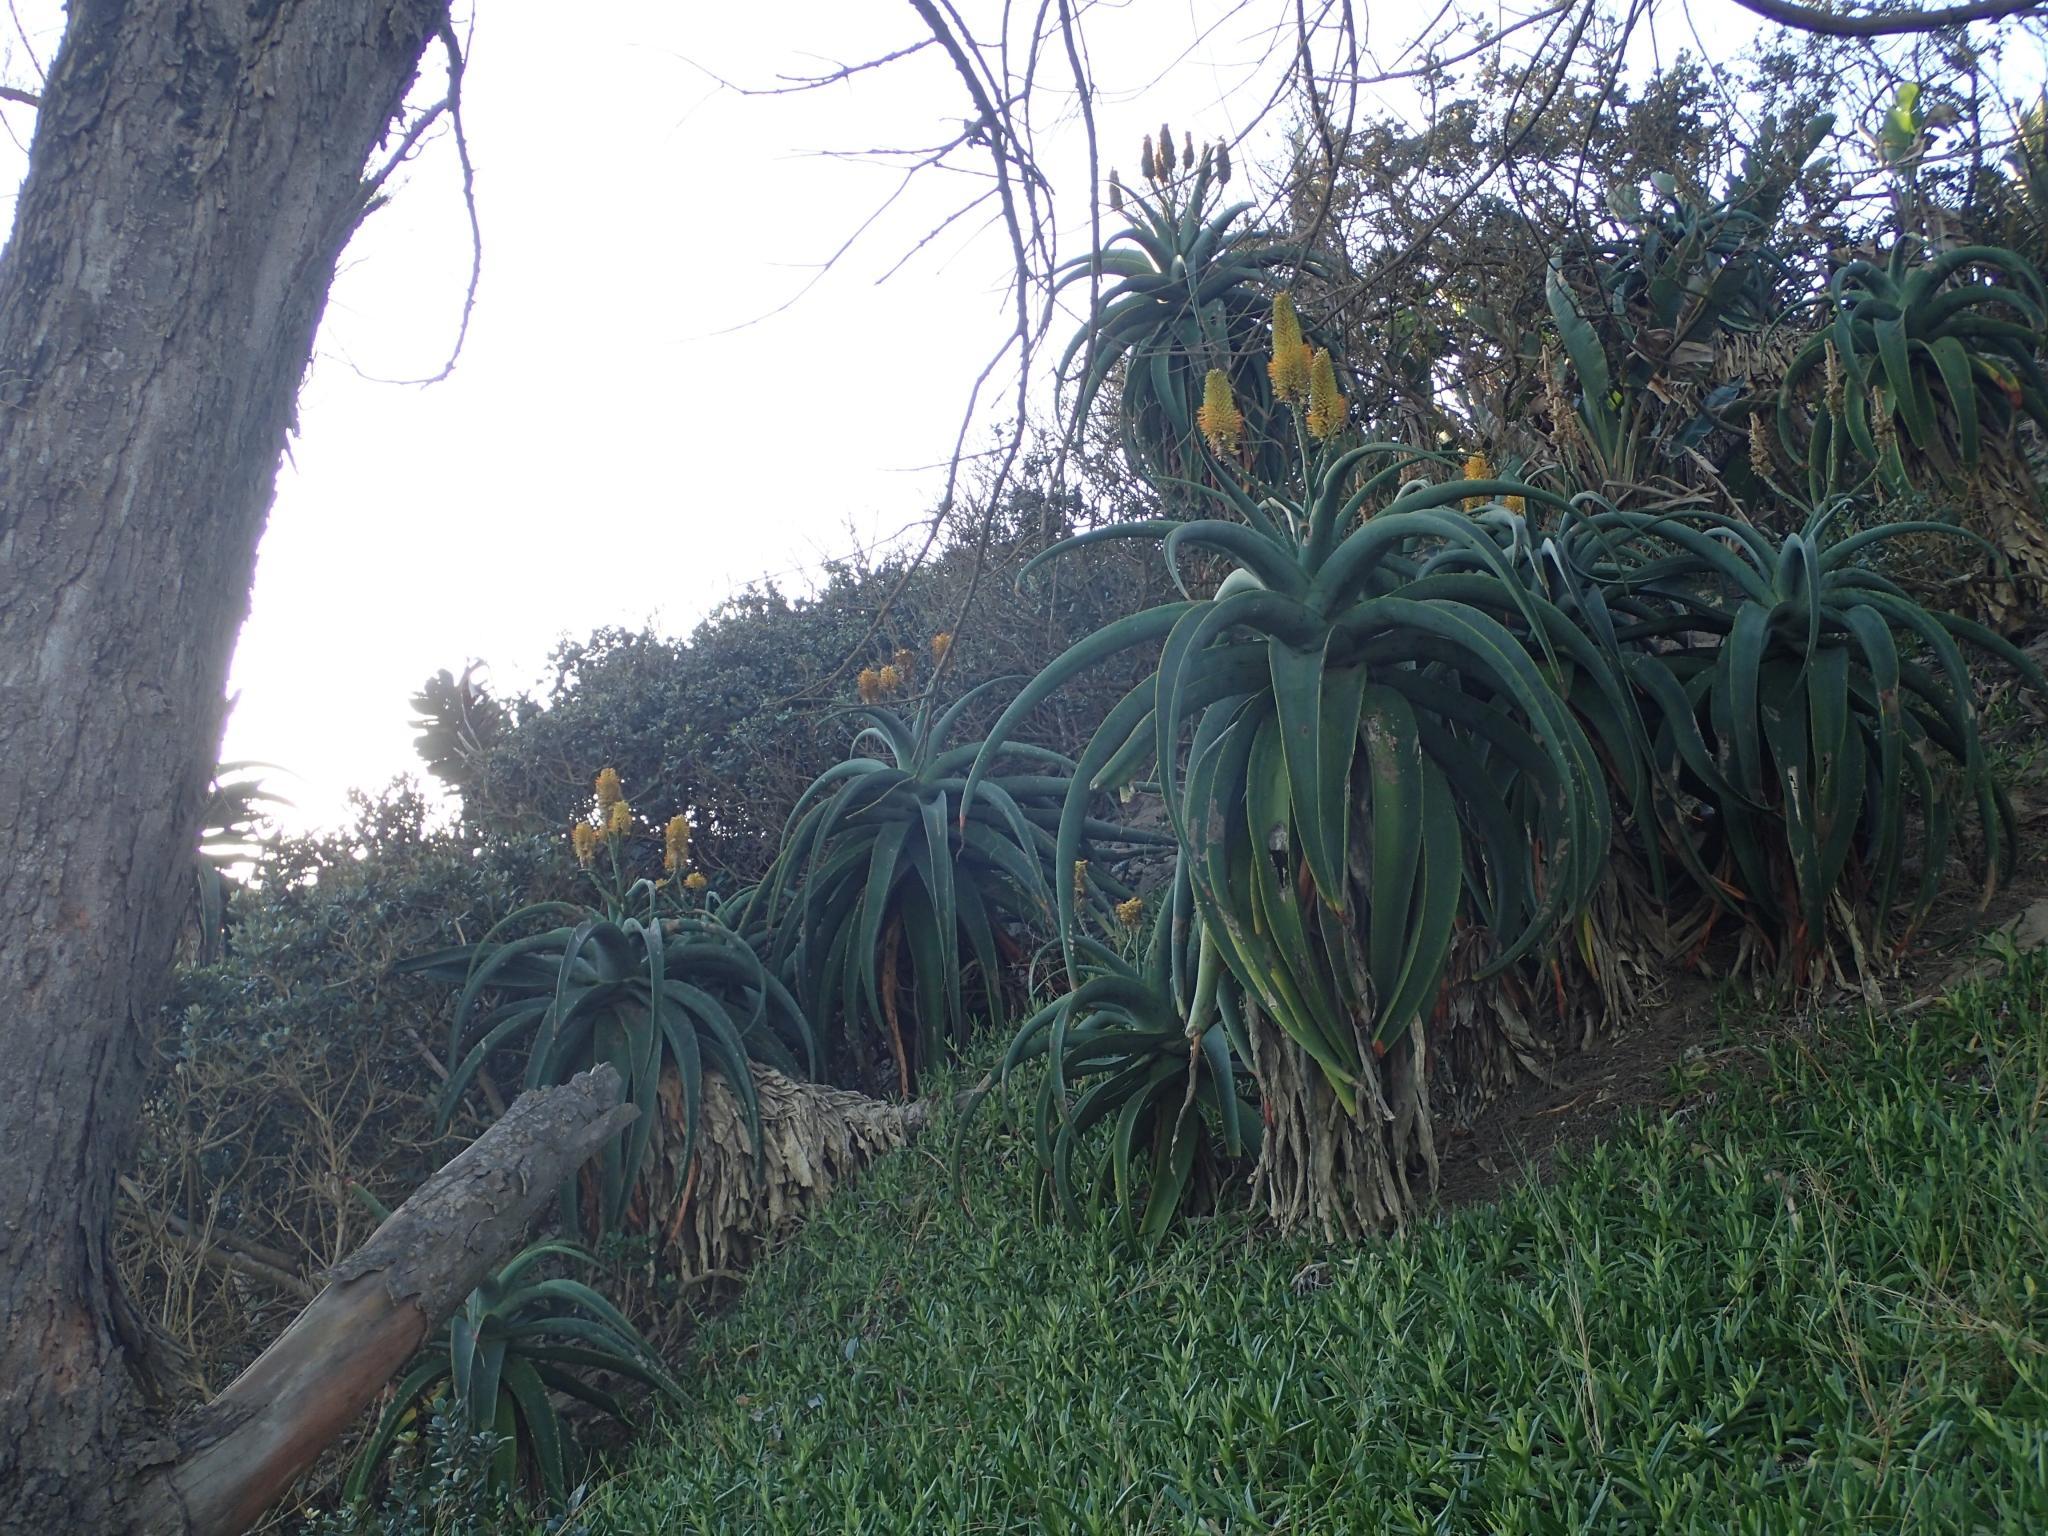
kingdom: Plantae
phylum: Tracheophyta
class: Liliopsida
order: Asparagales
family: Asphodelaceae
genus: Aloe
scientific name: Aloe thraskii
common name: Coast aloe
